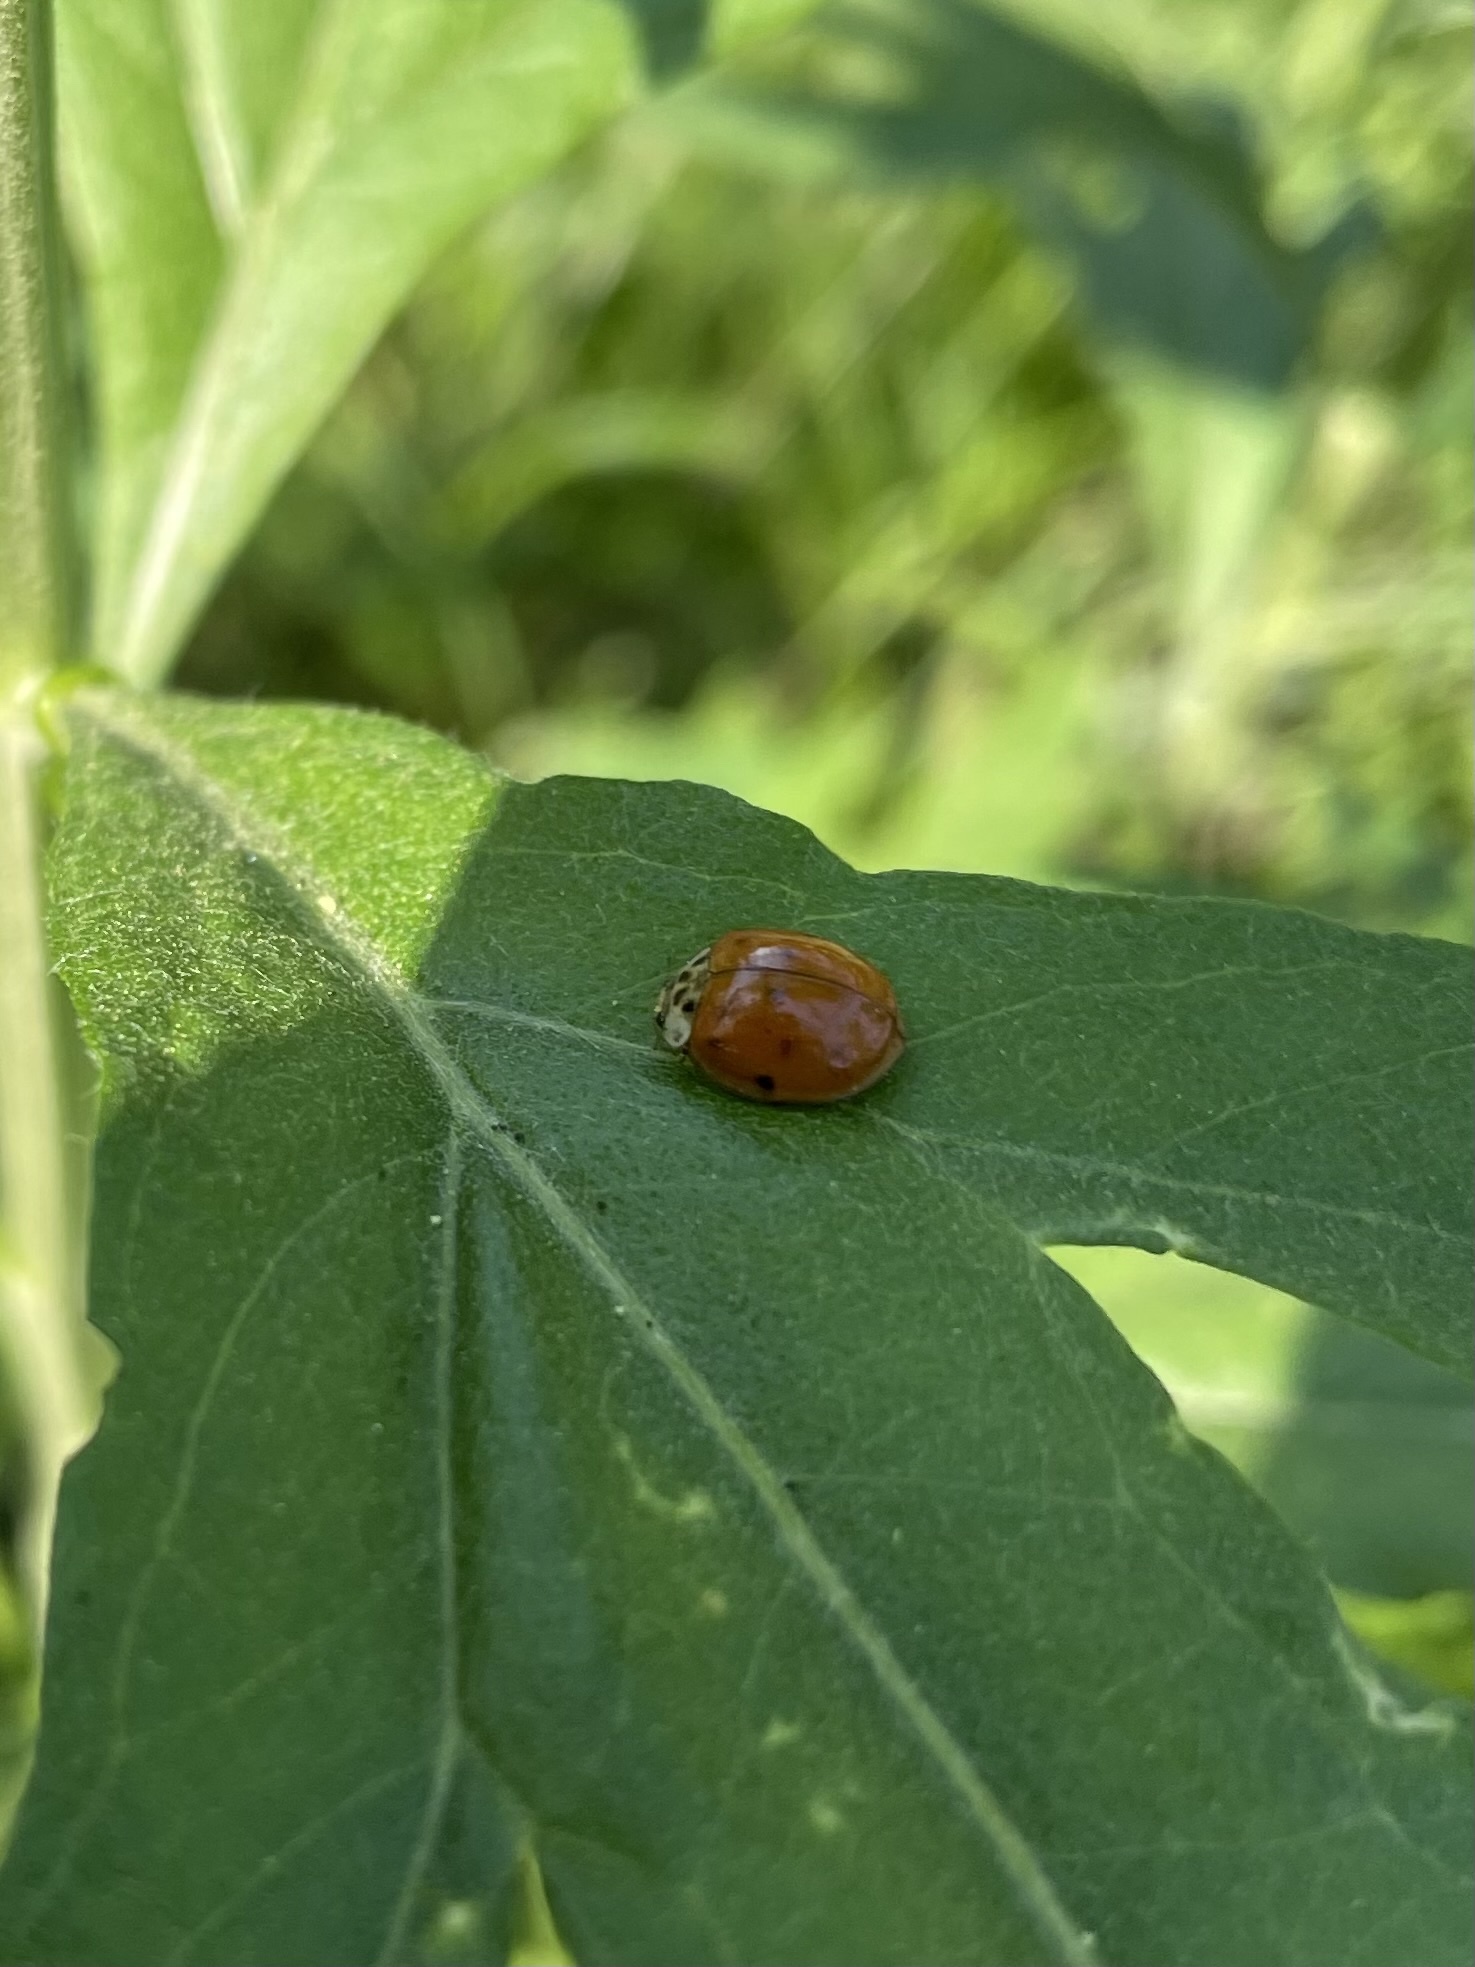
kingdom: Animalia
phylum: Arthropoda
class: Insecta
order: Coleoptera
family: Coccinellidae
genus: Harmonia
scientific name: Harmonia axyridis
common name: Harlequin ladybird
